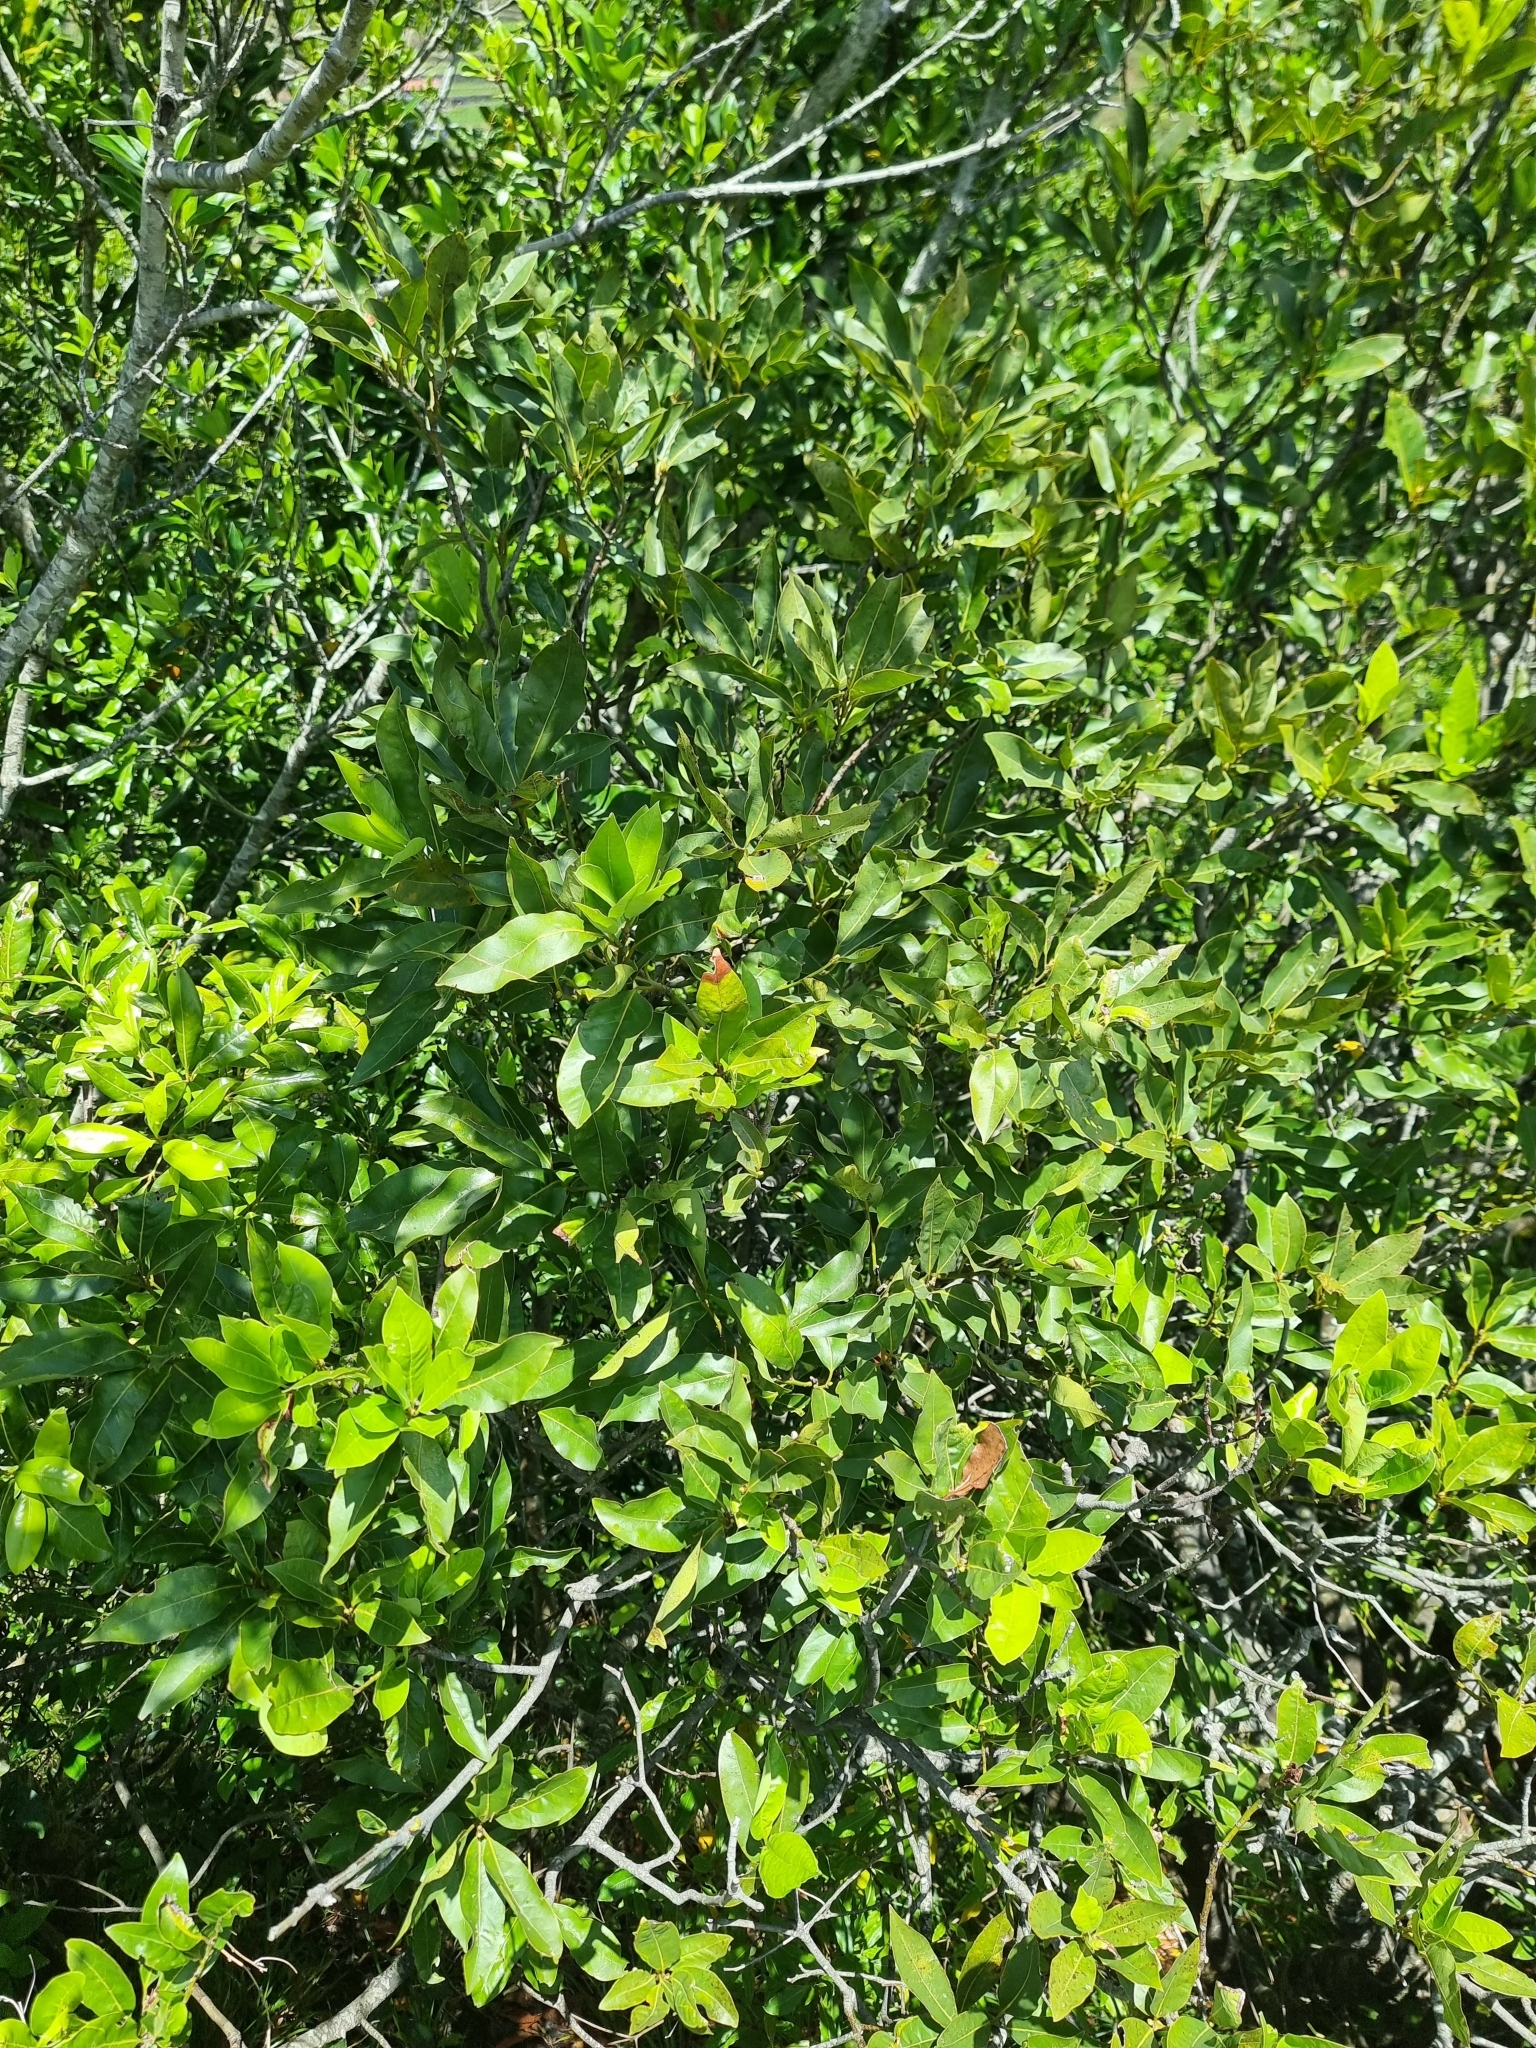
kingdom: Plantae
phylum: Tracheophyta
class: Magnoliopsida
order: Laurales
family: Lauraceae
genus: Laurus
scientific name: Laurus novocanariensis
